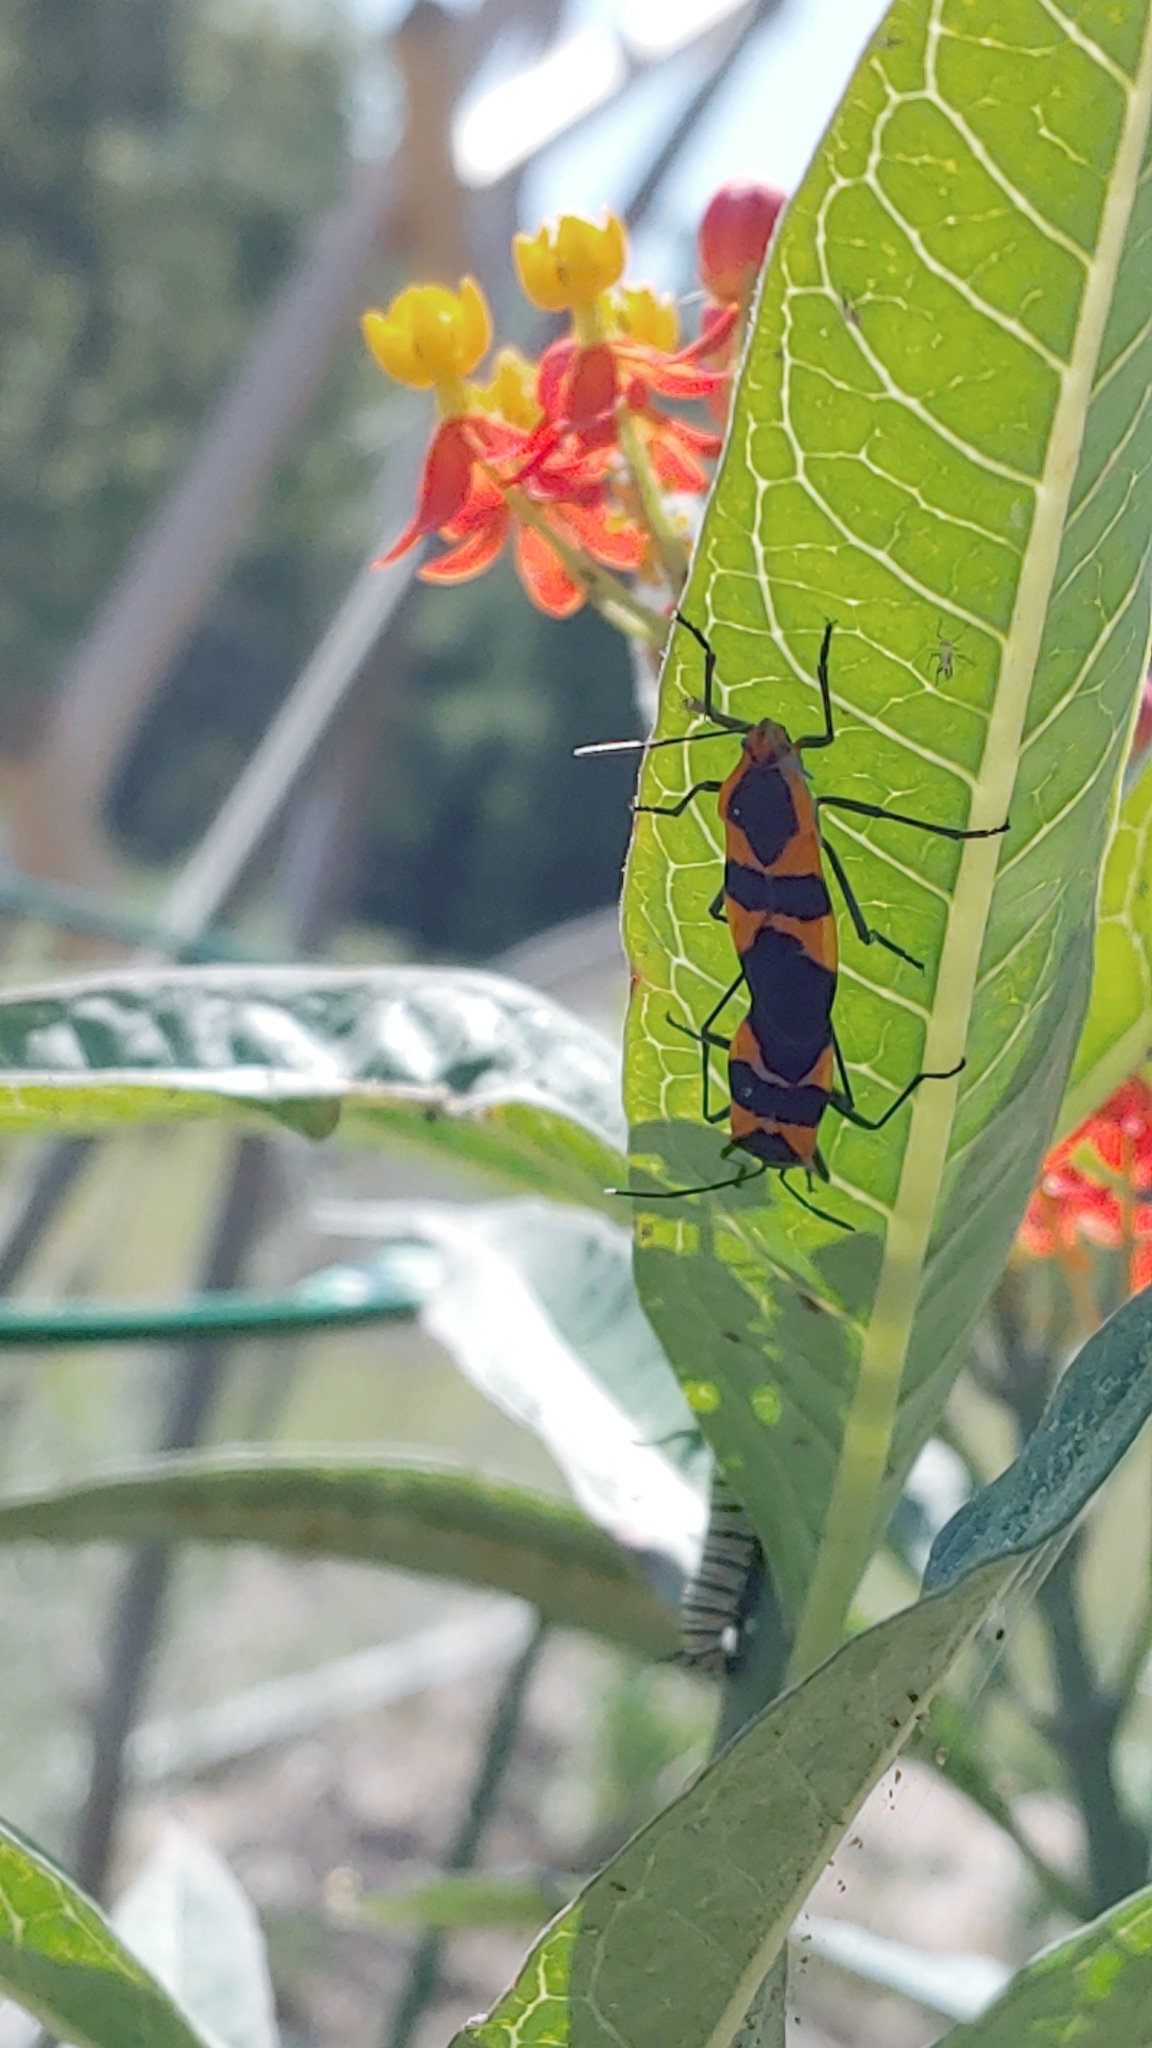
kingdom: Animalia
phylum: Arthropoda
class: Insecta
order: Hemiptera
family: Lygaeidae
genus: Oncopeltus
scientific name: Oncopeltus fasciatus
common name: Large milkweed bug
